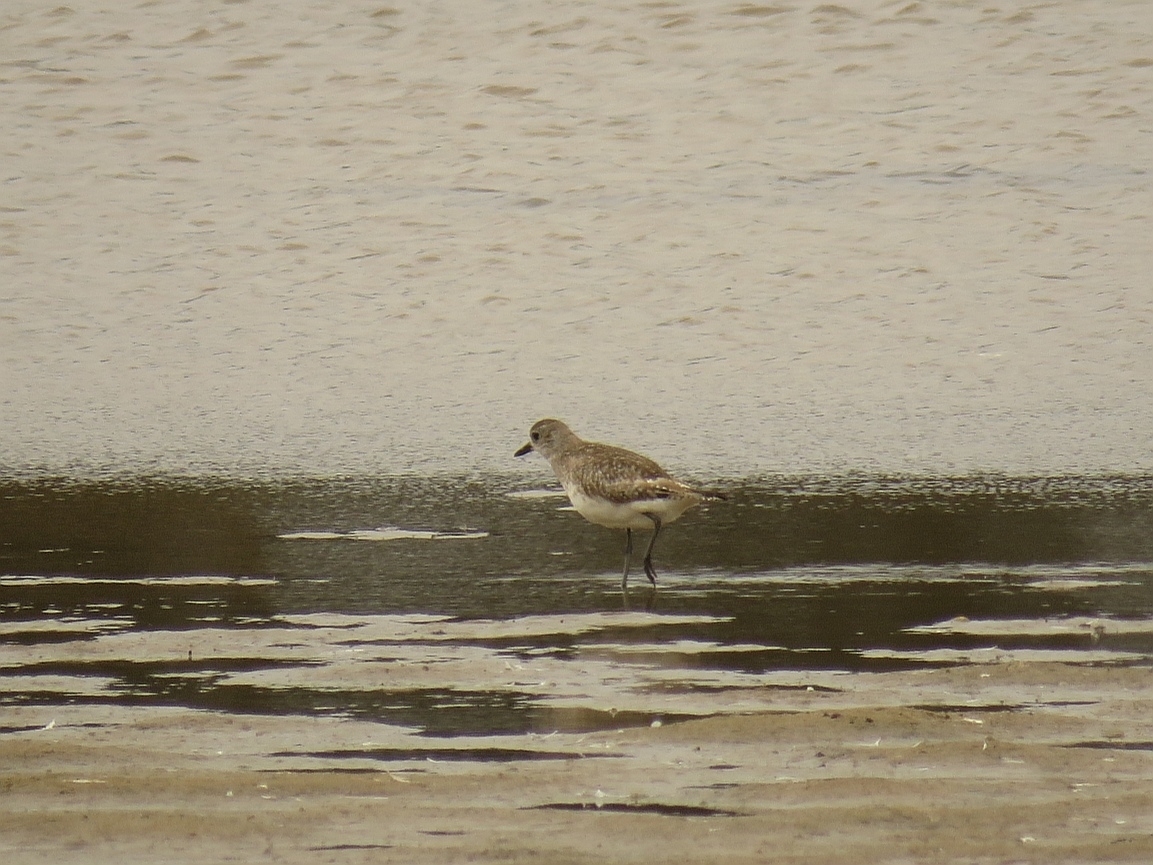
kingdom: Animalia
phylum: Chordata
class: Aves
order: Charadriiformes
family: Charadriidae
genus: Pluvialis
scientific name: Pluvialis squatarola
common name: Grey plover
